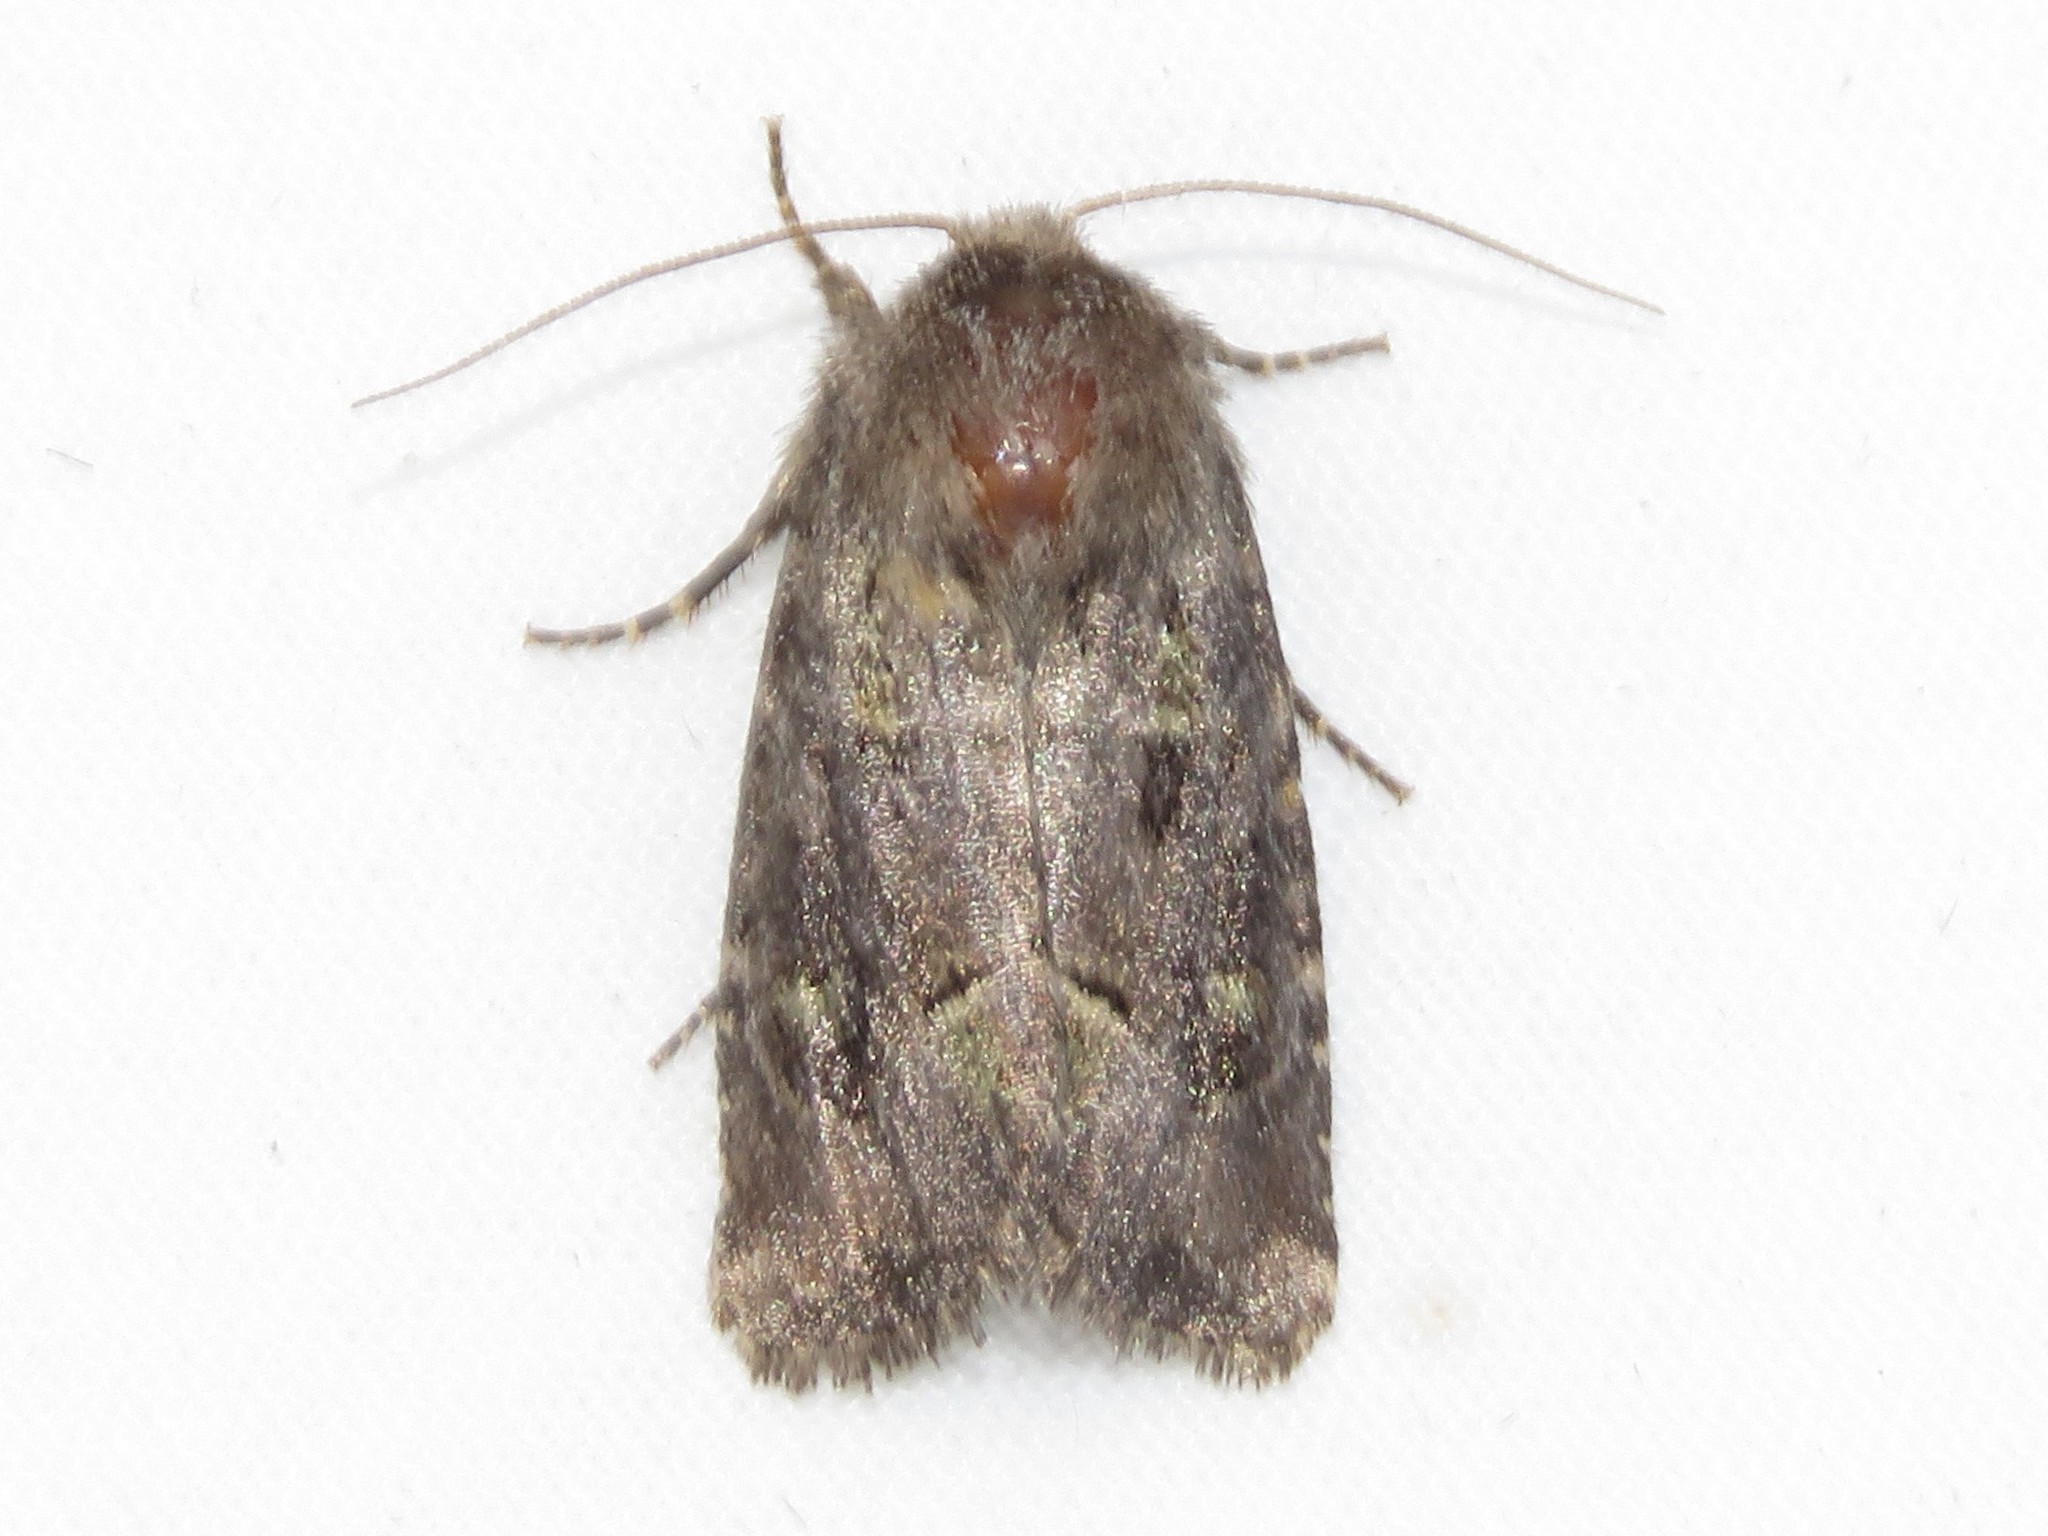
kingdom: Animalia
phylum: Arthropoda
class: Insecta
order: Lepidoptera
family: Noctuidae
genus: Lacinipolia
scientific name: Lacinipolia renigera
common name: Kidney-spotted minor
